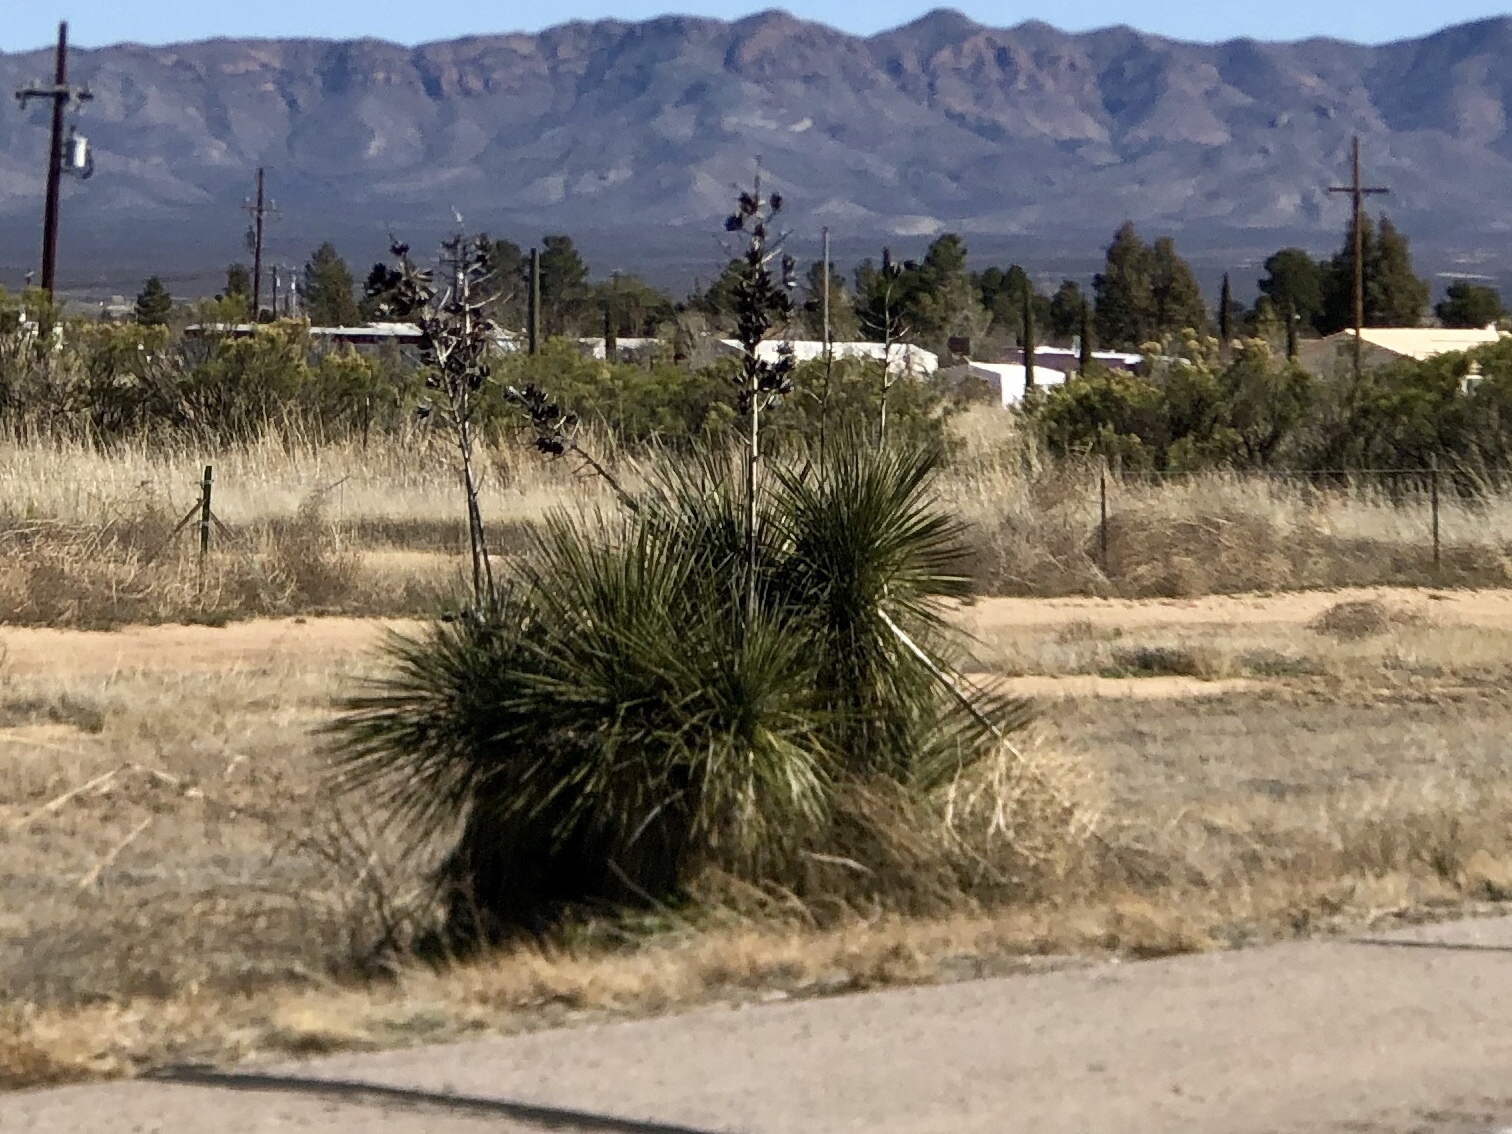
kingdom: Plantae
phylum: Tracheophyta
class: Liliopsida
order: Asparagales
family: Asparagaceae
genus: Yucca
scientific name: Yucca elata
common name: Palmella
